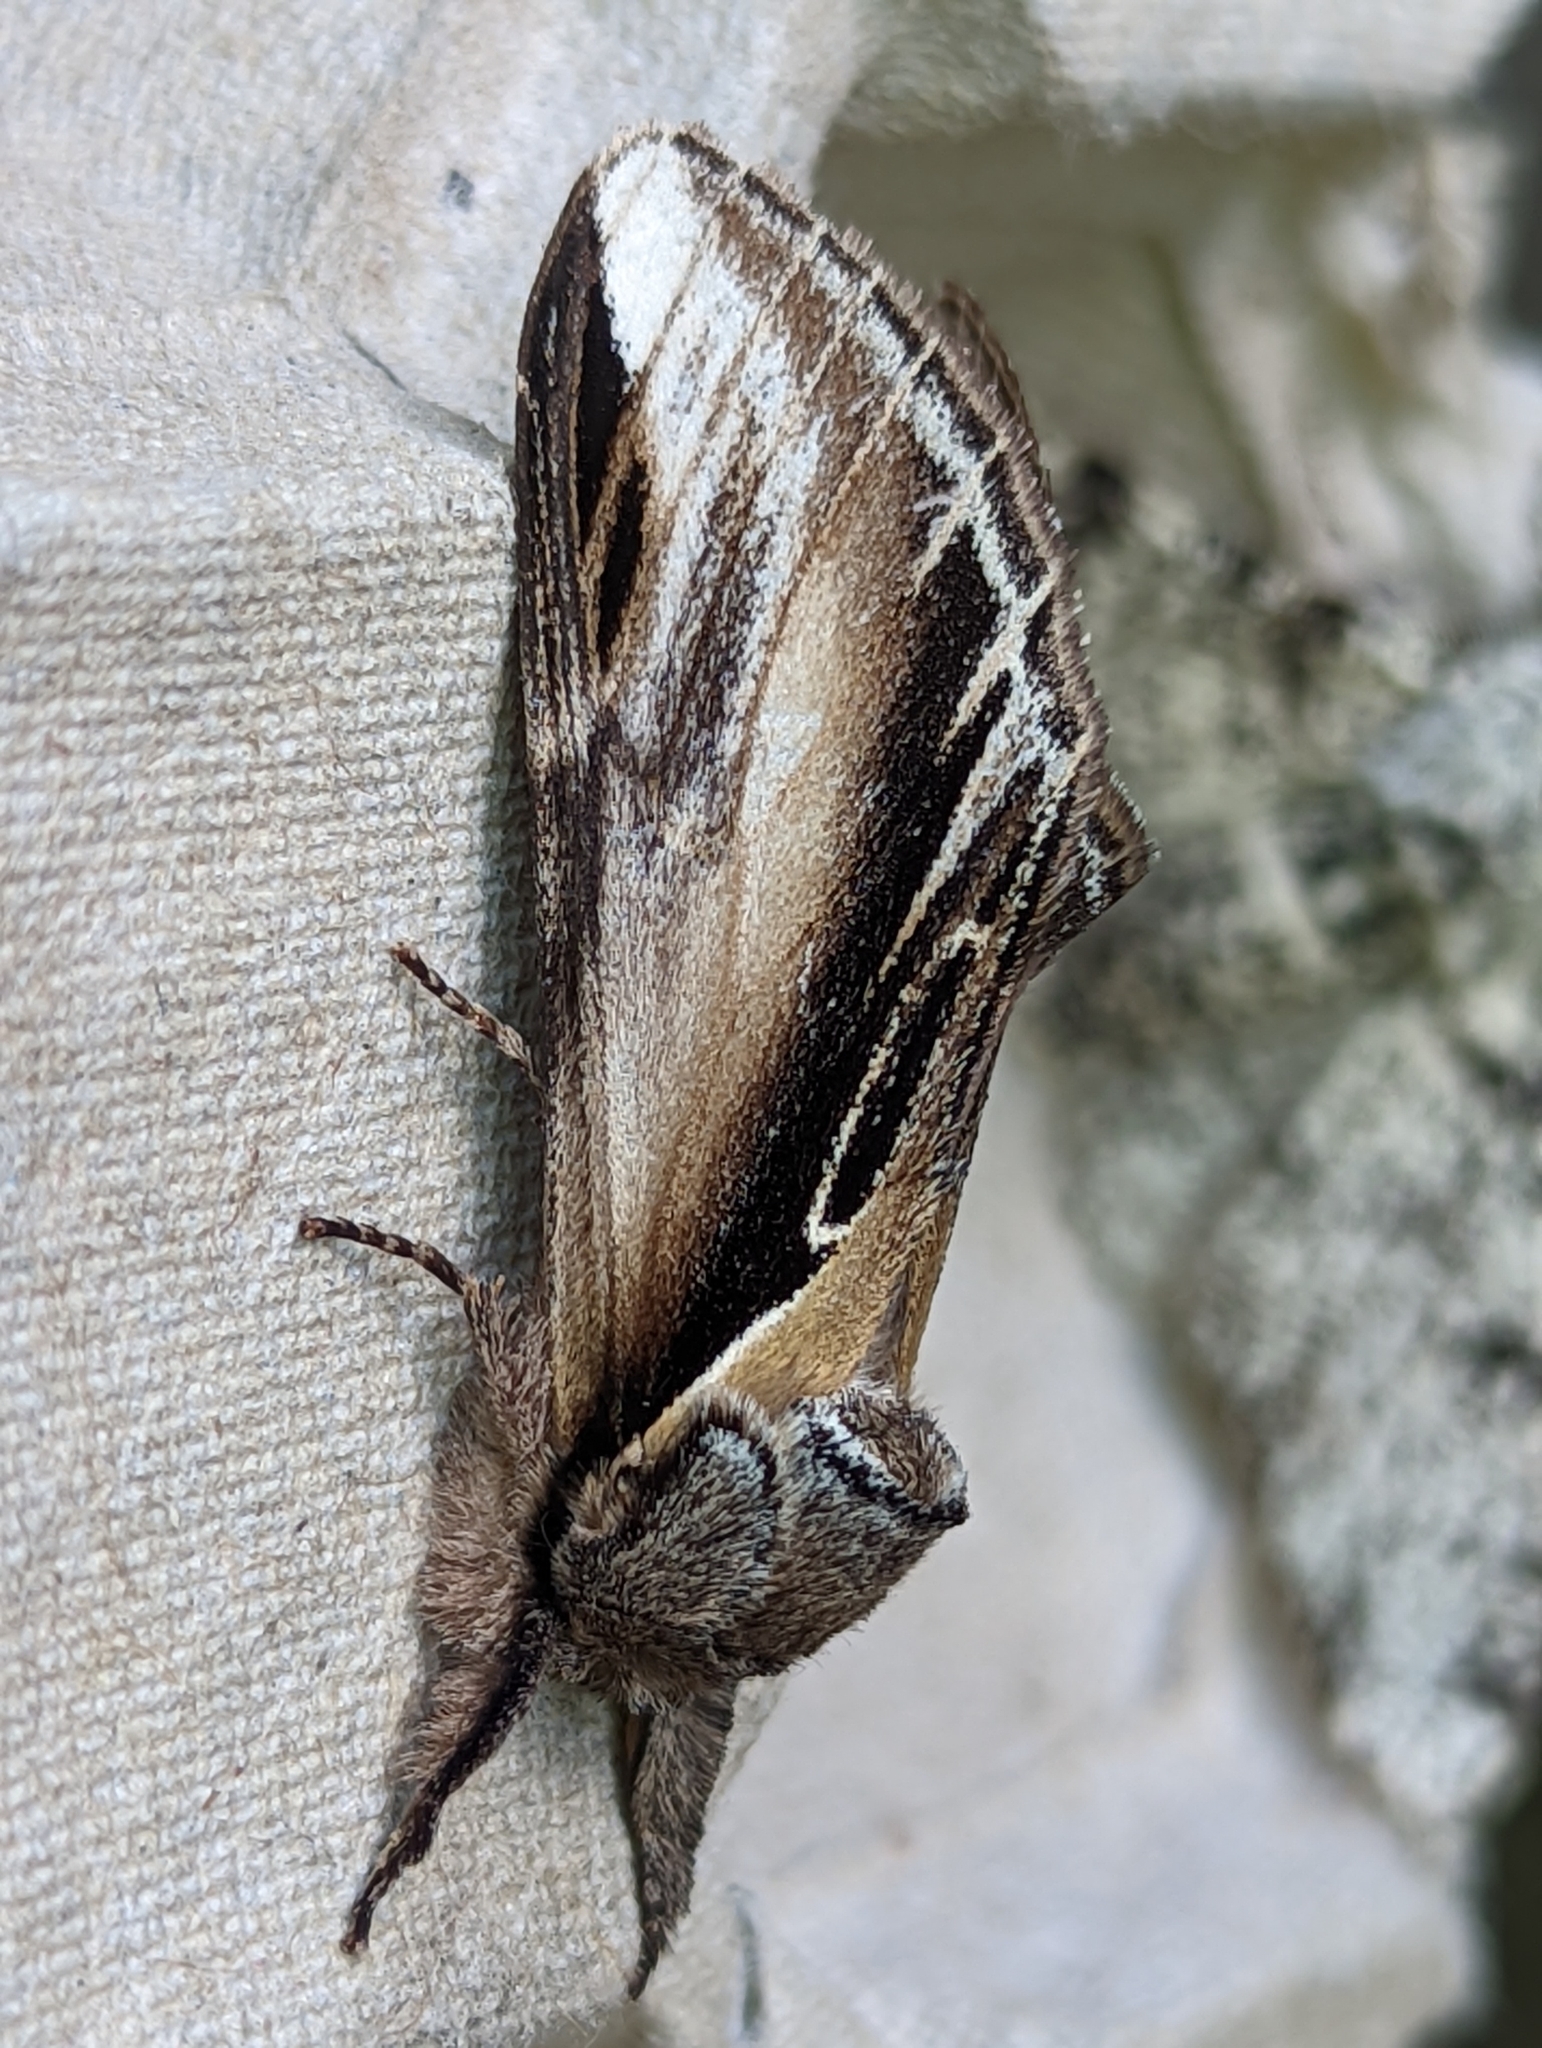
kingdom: Animalia
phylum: Arthropoda
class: Insecta
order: Lepidoptera
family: Notodontidae
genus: Pheosia
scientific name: Pheosia tremula
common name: Swallow prominent
